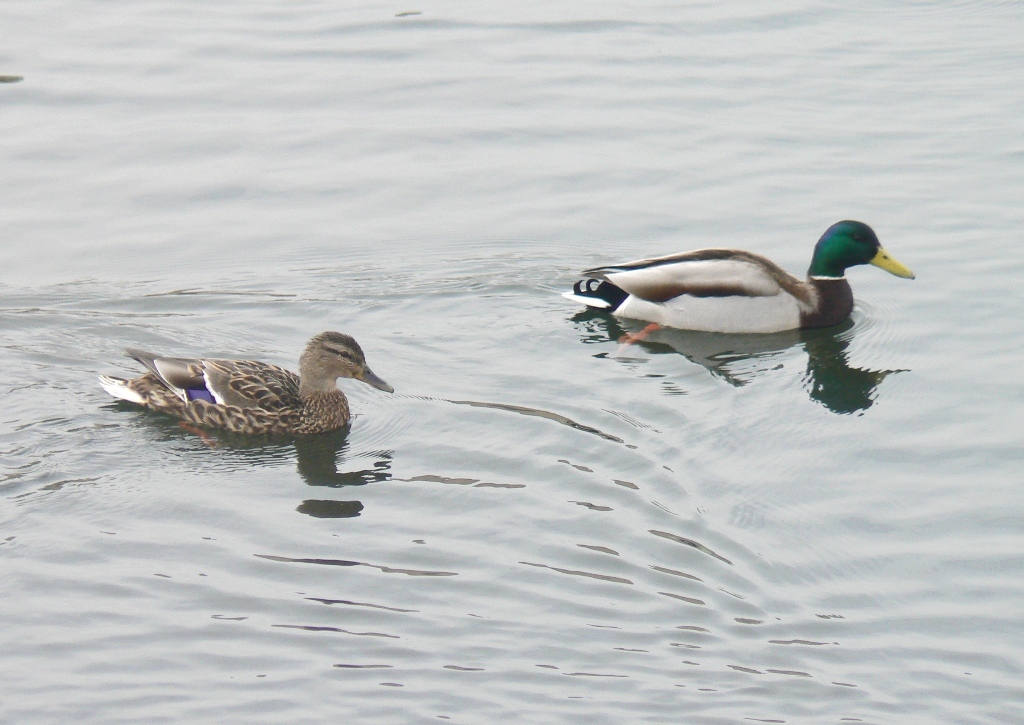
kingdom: Animalia
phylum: Chordata
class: Aves
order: Anseriformes
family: Anatidae
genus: Anas
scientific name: Anas platyrhynchos
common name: Mallard
